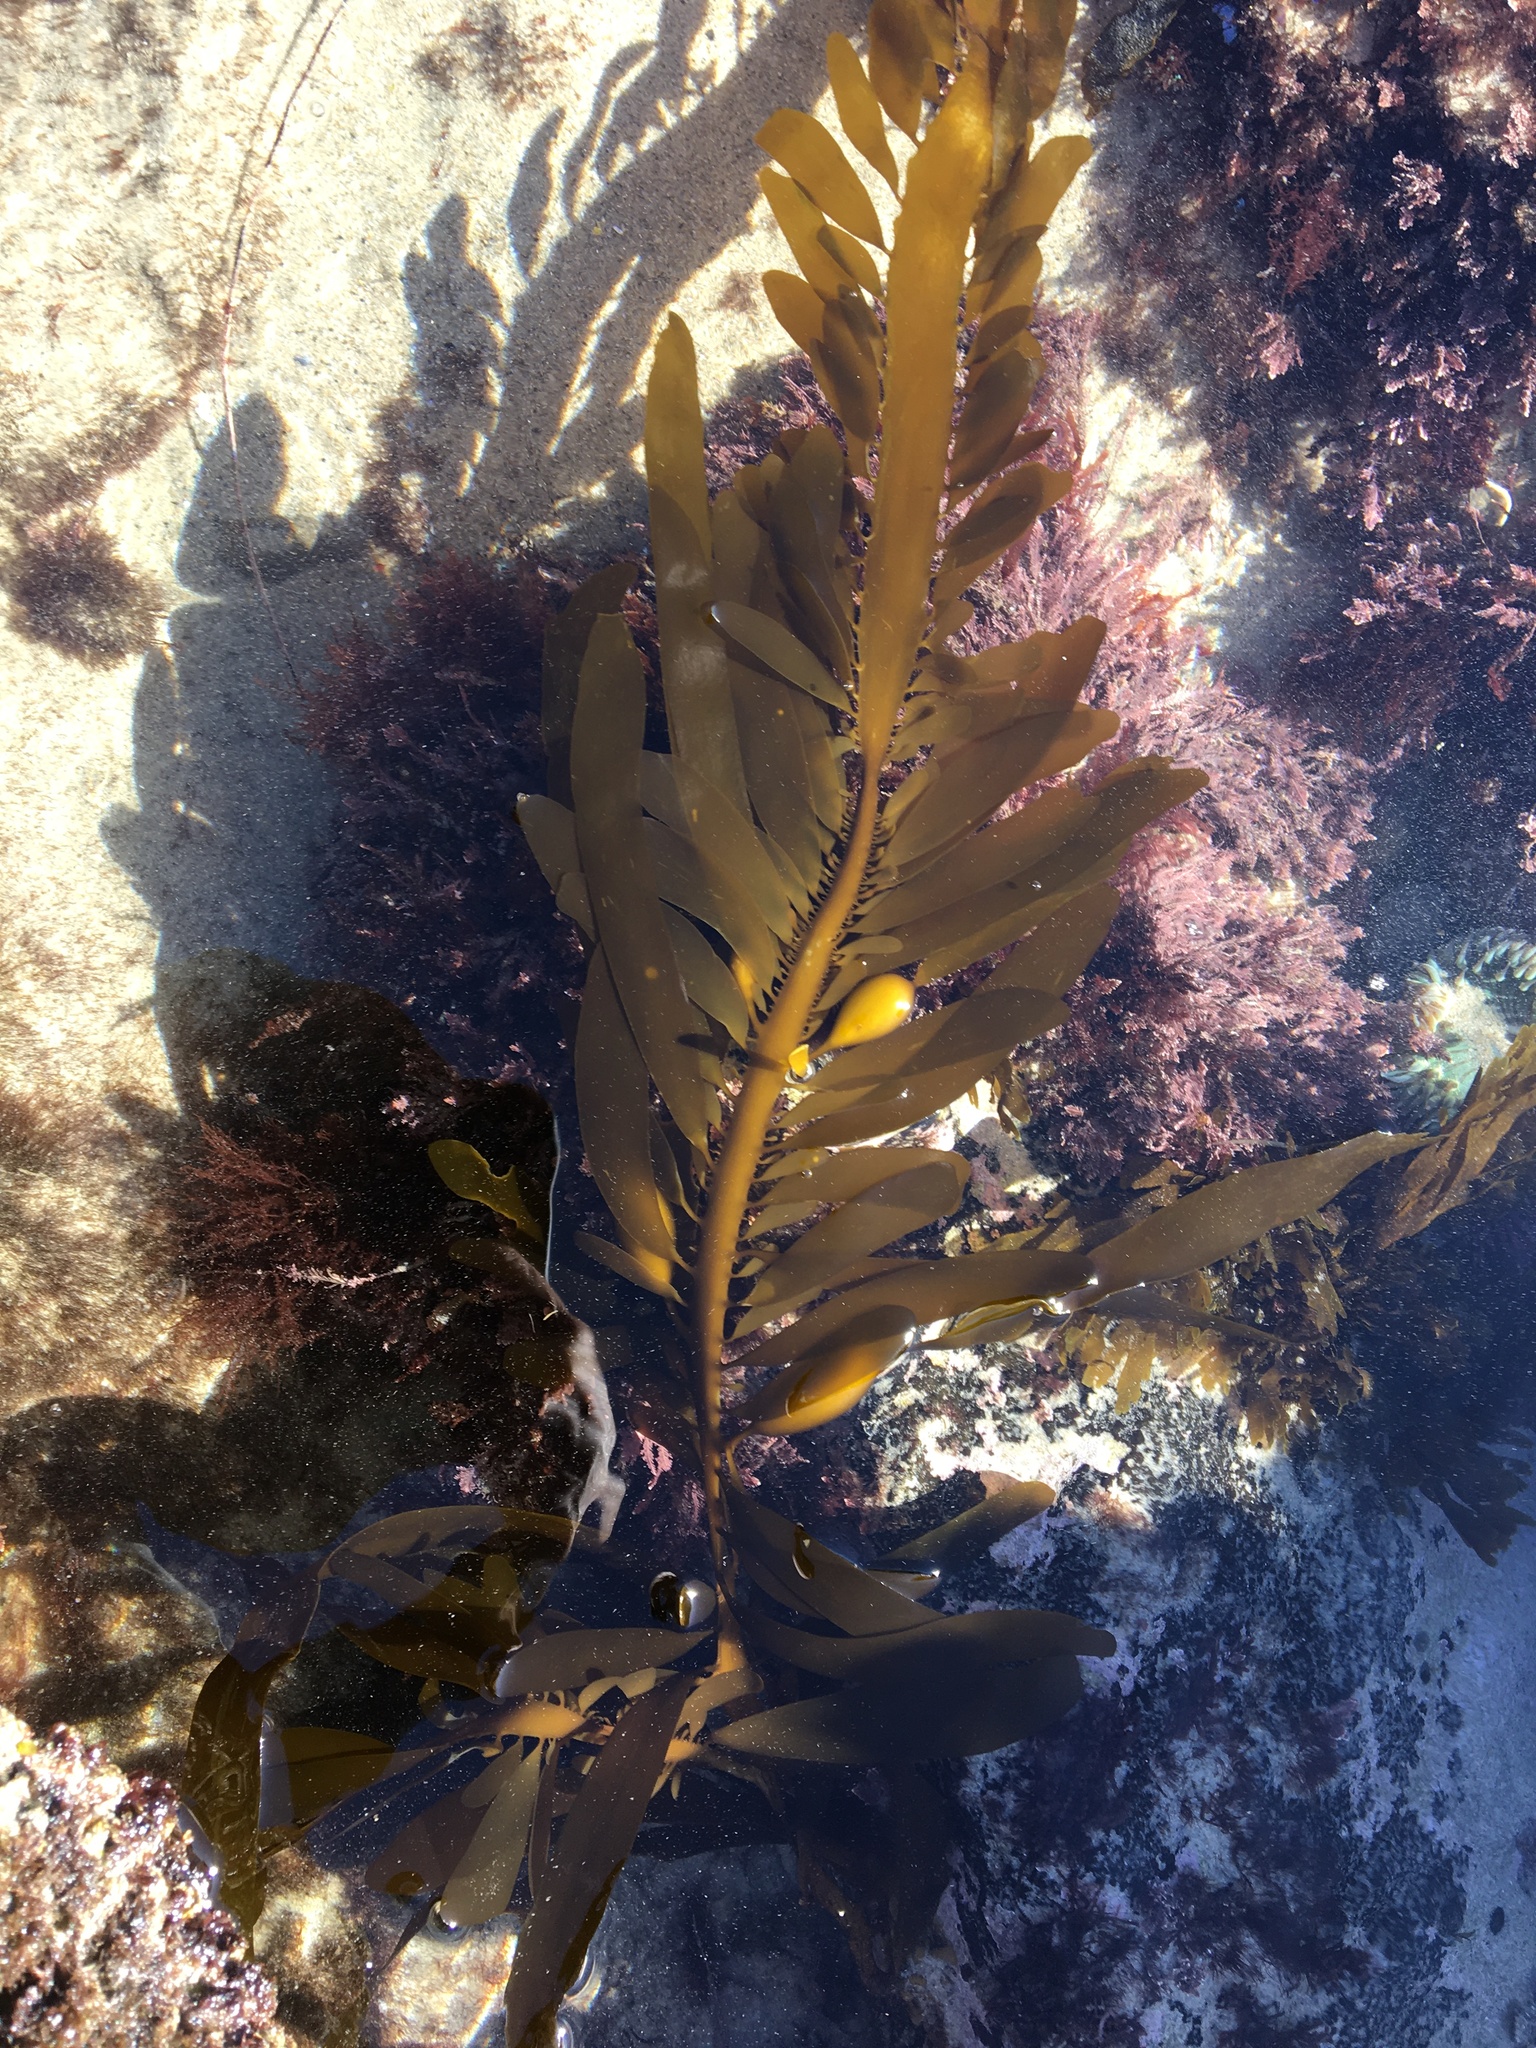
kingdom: Chromista
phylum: Ochrophyta
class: Phaeophyceae
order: Laminariales
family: Lessoniaceae
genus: Egregia
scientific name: Egregia menziesii
